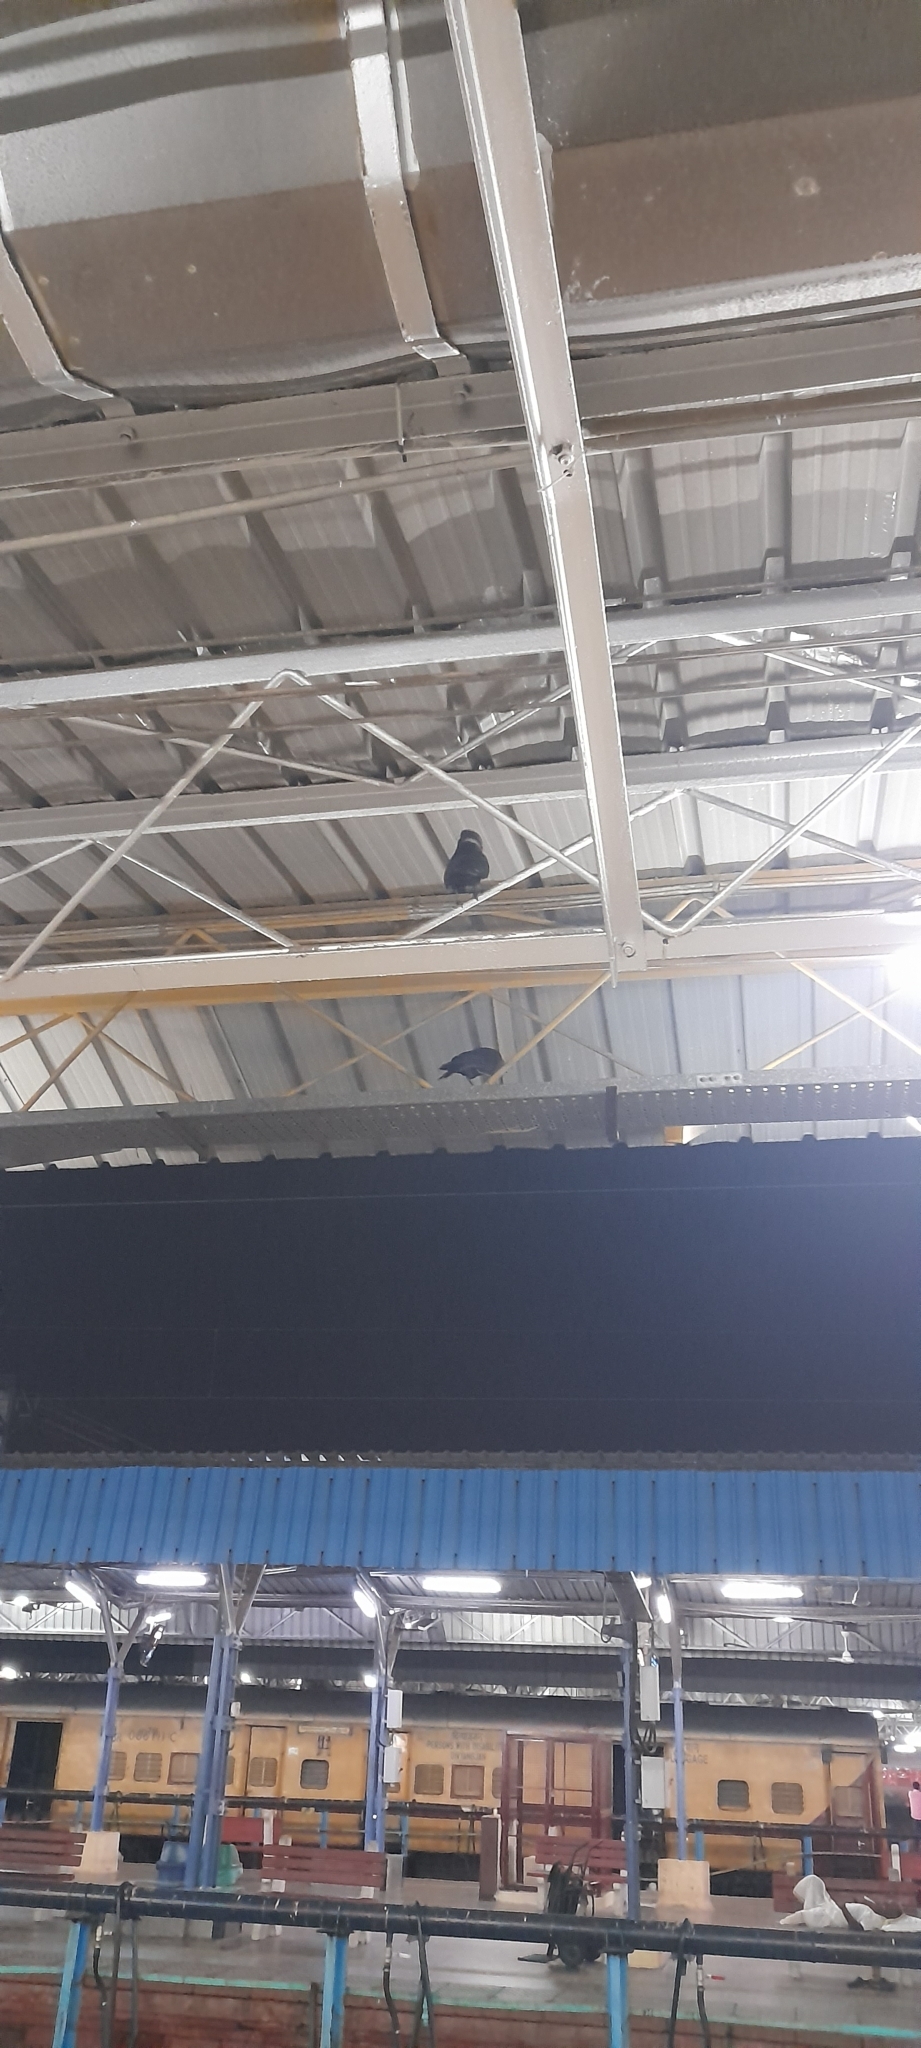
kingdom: Animalia
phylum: Chordata
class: Aves
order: Passeriformes
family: Corvidae
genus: Corvus
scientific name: Corvus splendens
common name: House crow
